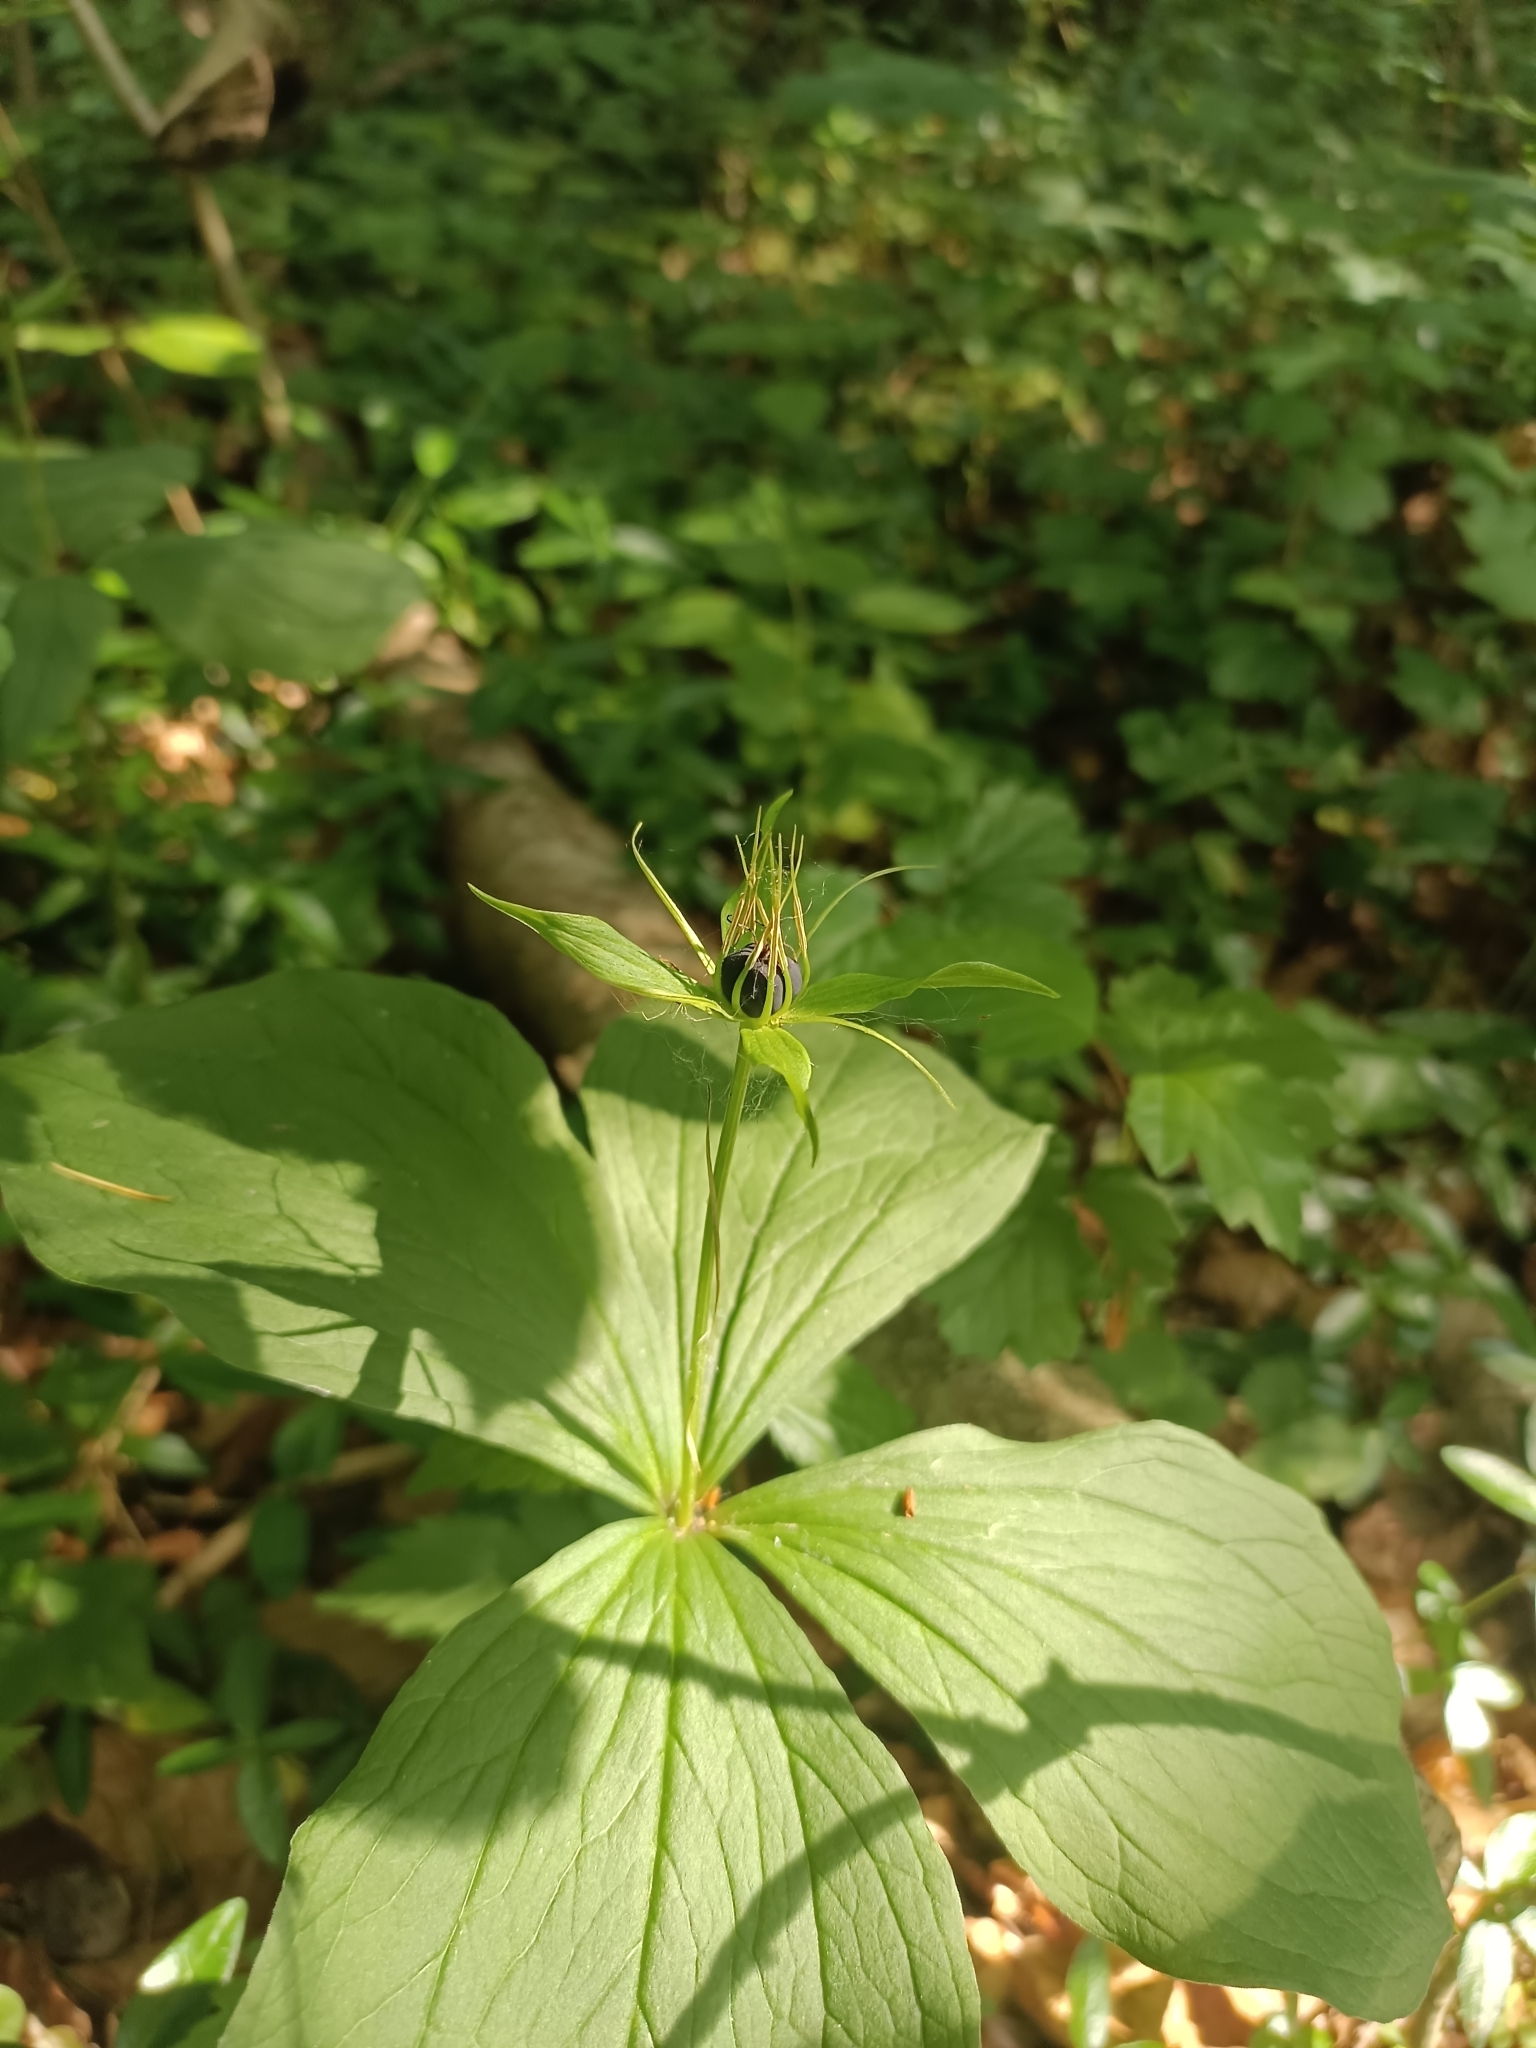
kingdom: Plantae
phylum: Tracheophyta
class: Liliopsida
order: Liliales
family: Melanthiaceae
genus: Paris
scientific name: Paris quadrifolia
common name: Herb-paris
